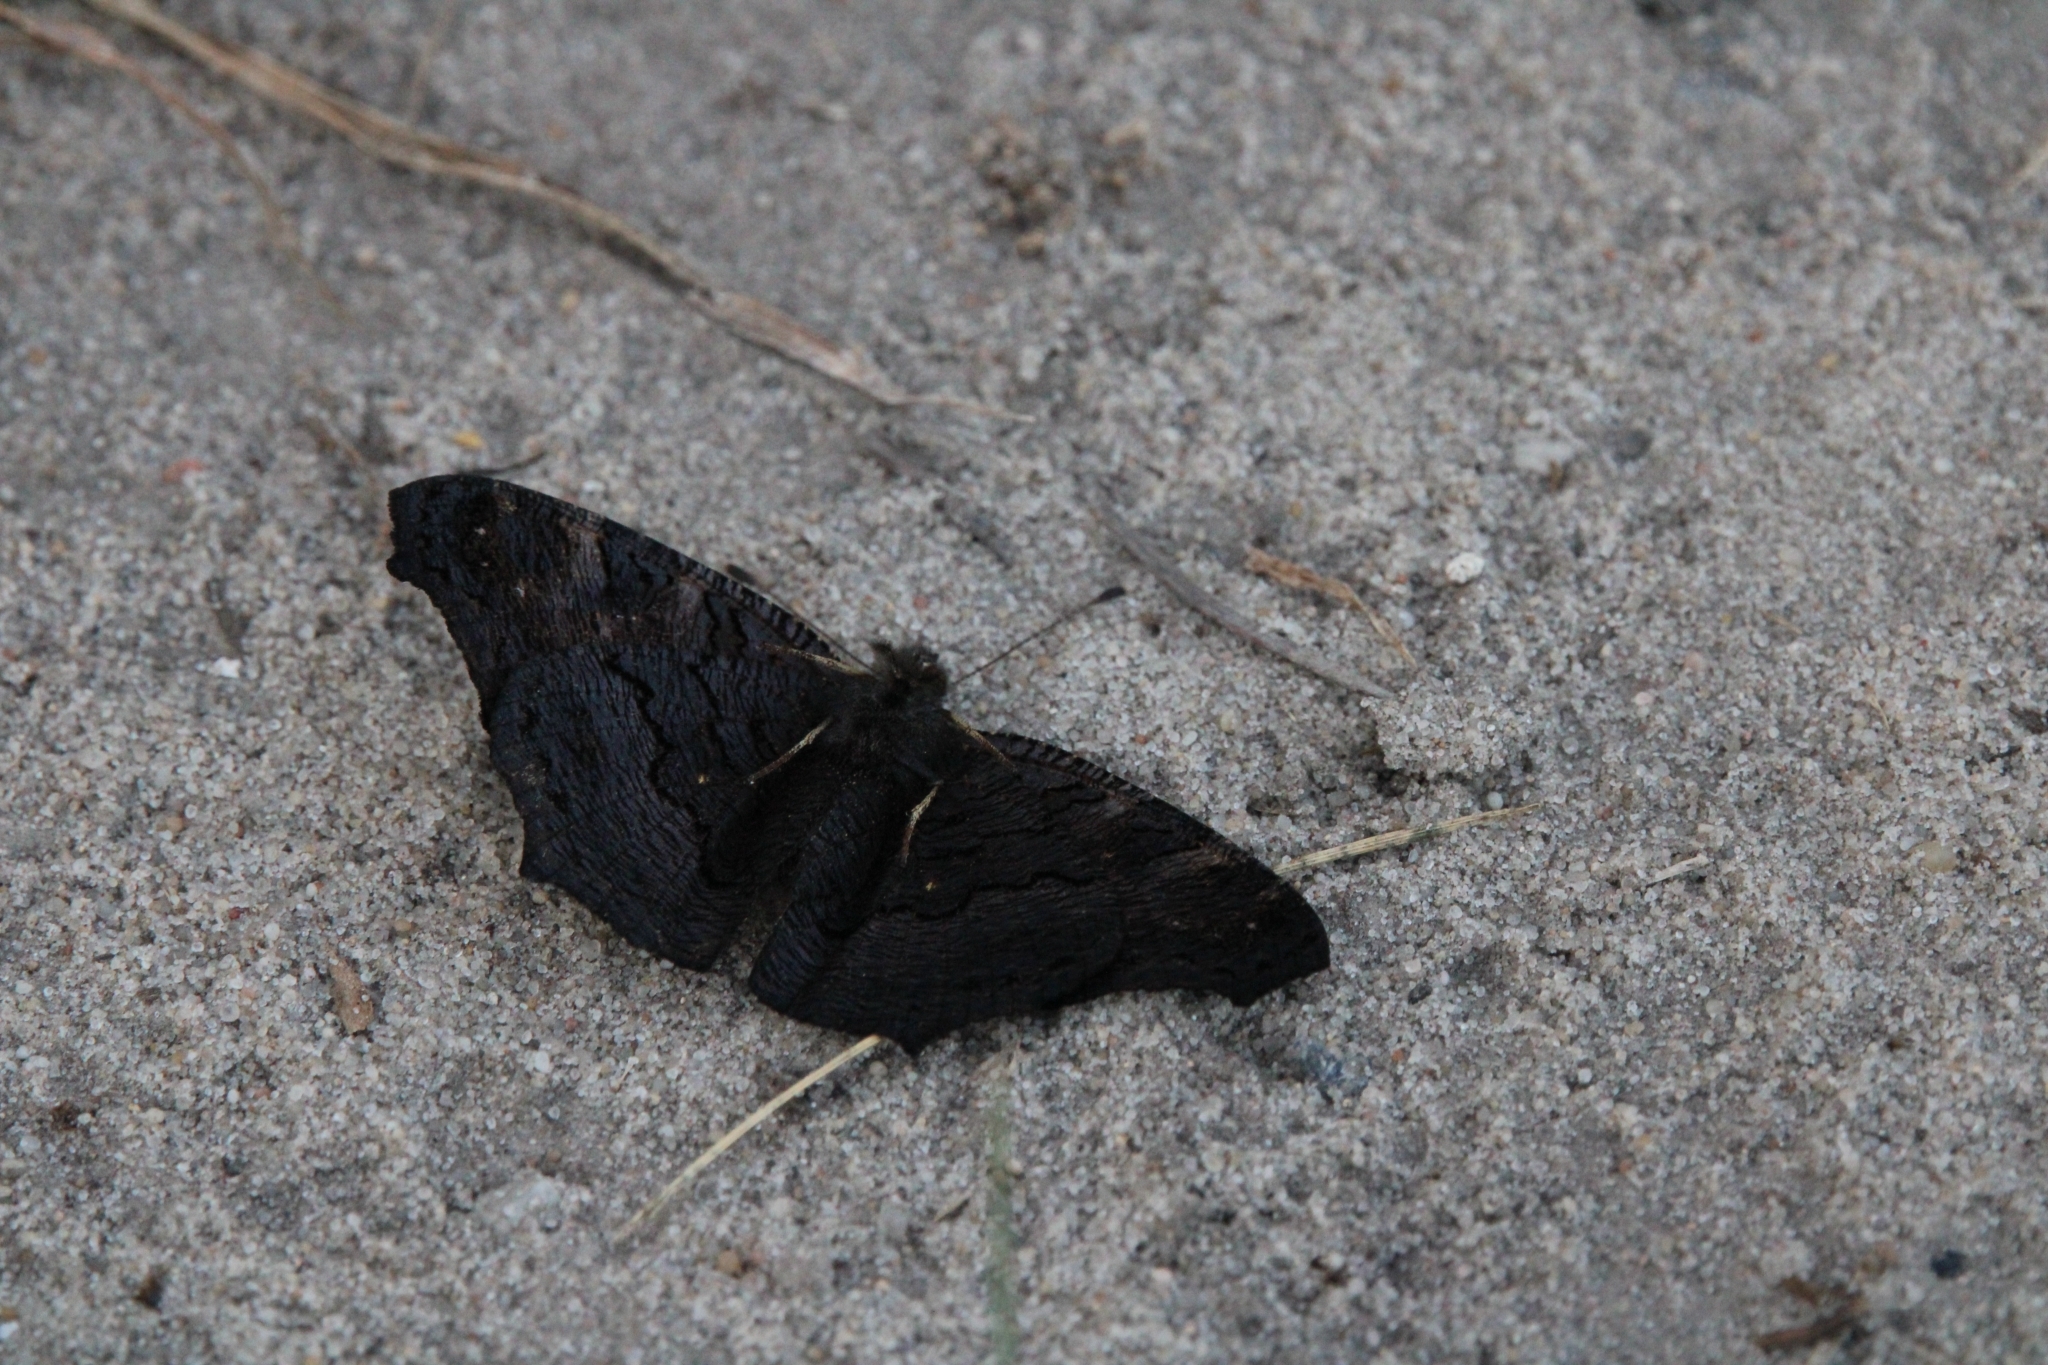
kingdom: Animalia
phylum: Arthropoda
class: Insecta
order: Lepidoptera
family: Nymphalidae
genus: Aglais
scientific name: Aglais io
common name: Peacock
